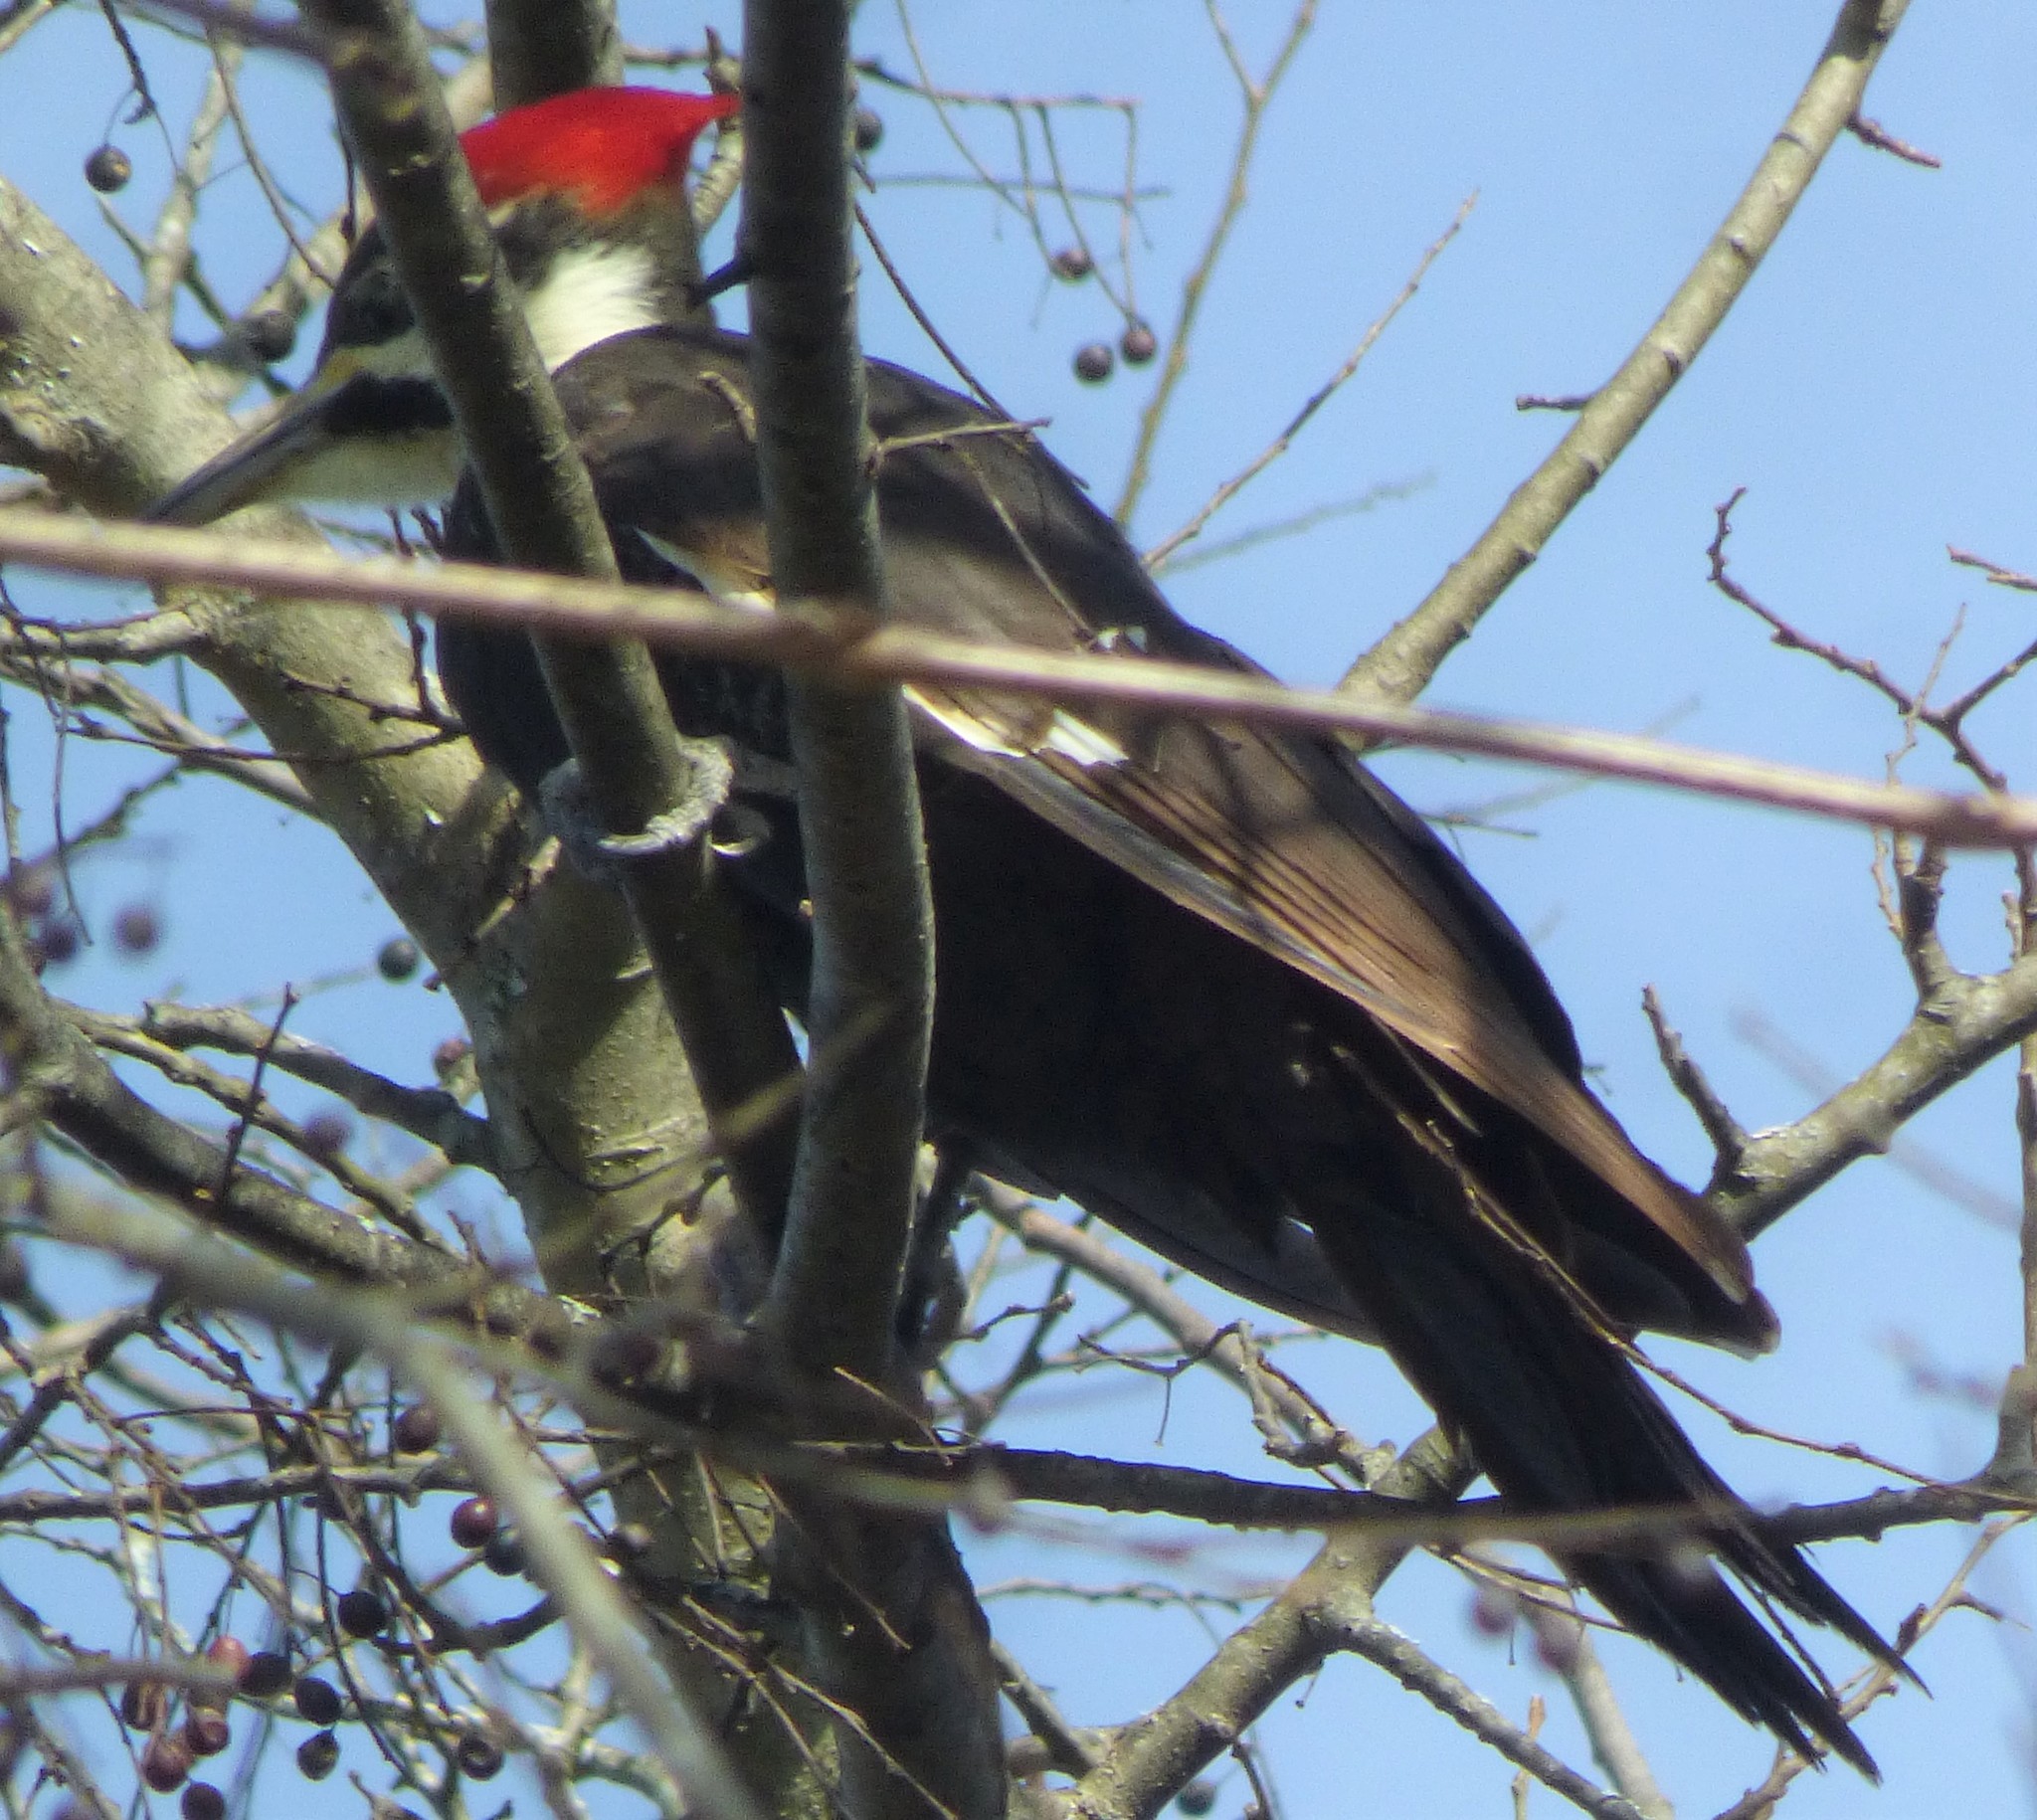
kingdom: Animalia
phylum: Chordata
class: Aves
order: Piciformes
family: Picidae
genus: Dryocopus
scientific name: Dryocopus pileatus
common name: Pileated woodpecker
